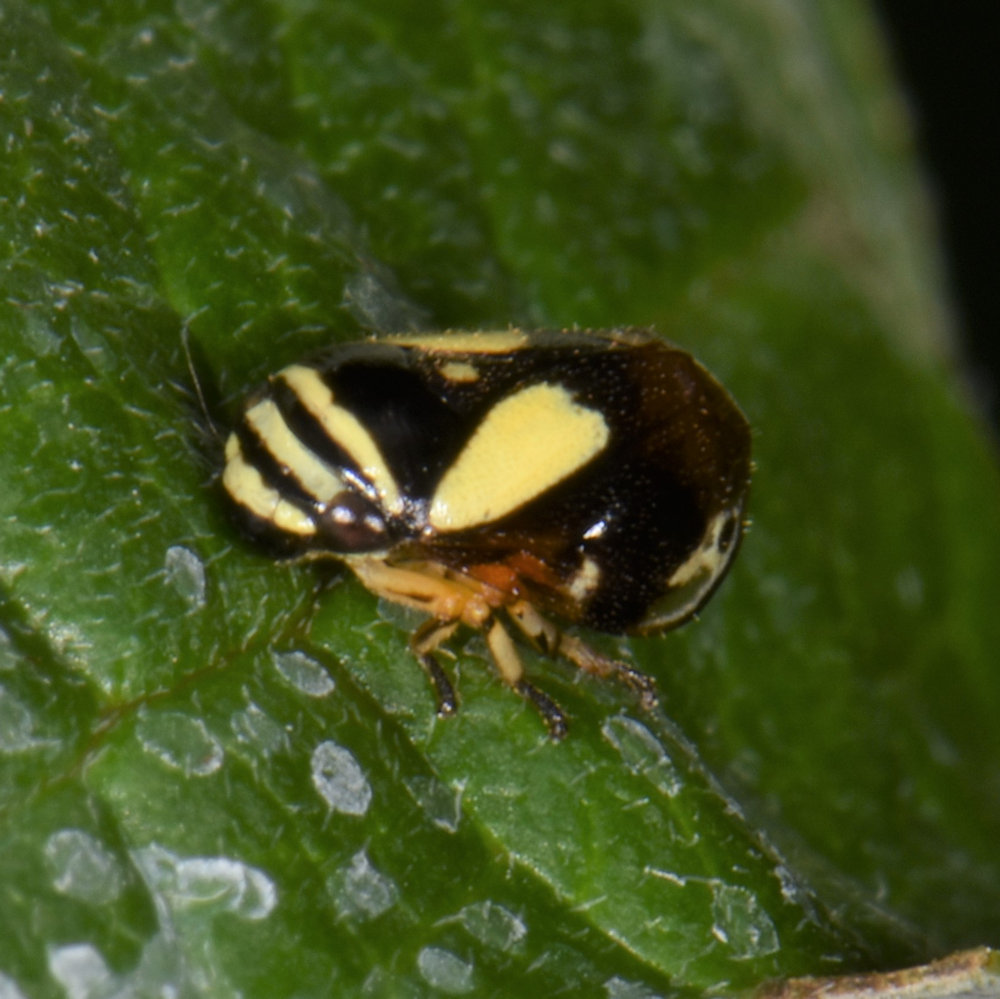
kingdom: Animalia
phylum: Arthropoda
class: Insecta
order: Hemiptera
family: Clastopteridae
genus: Clastoptera
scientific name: Clastoptera proteus
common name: Dogwood spittlebug
